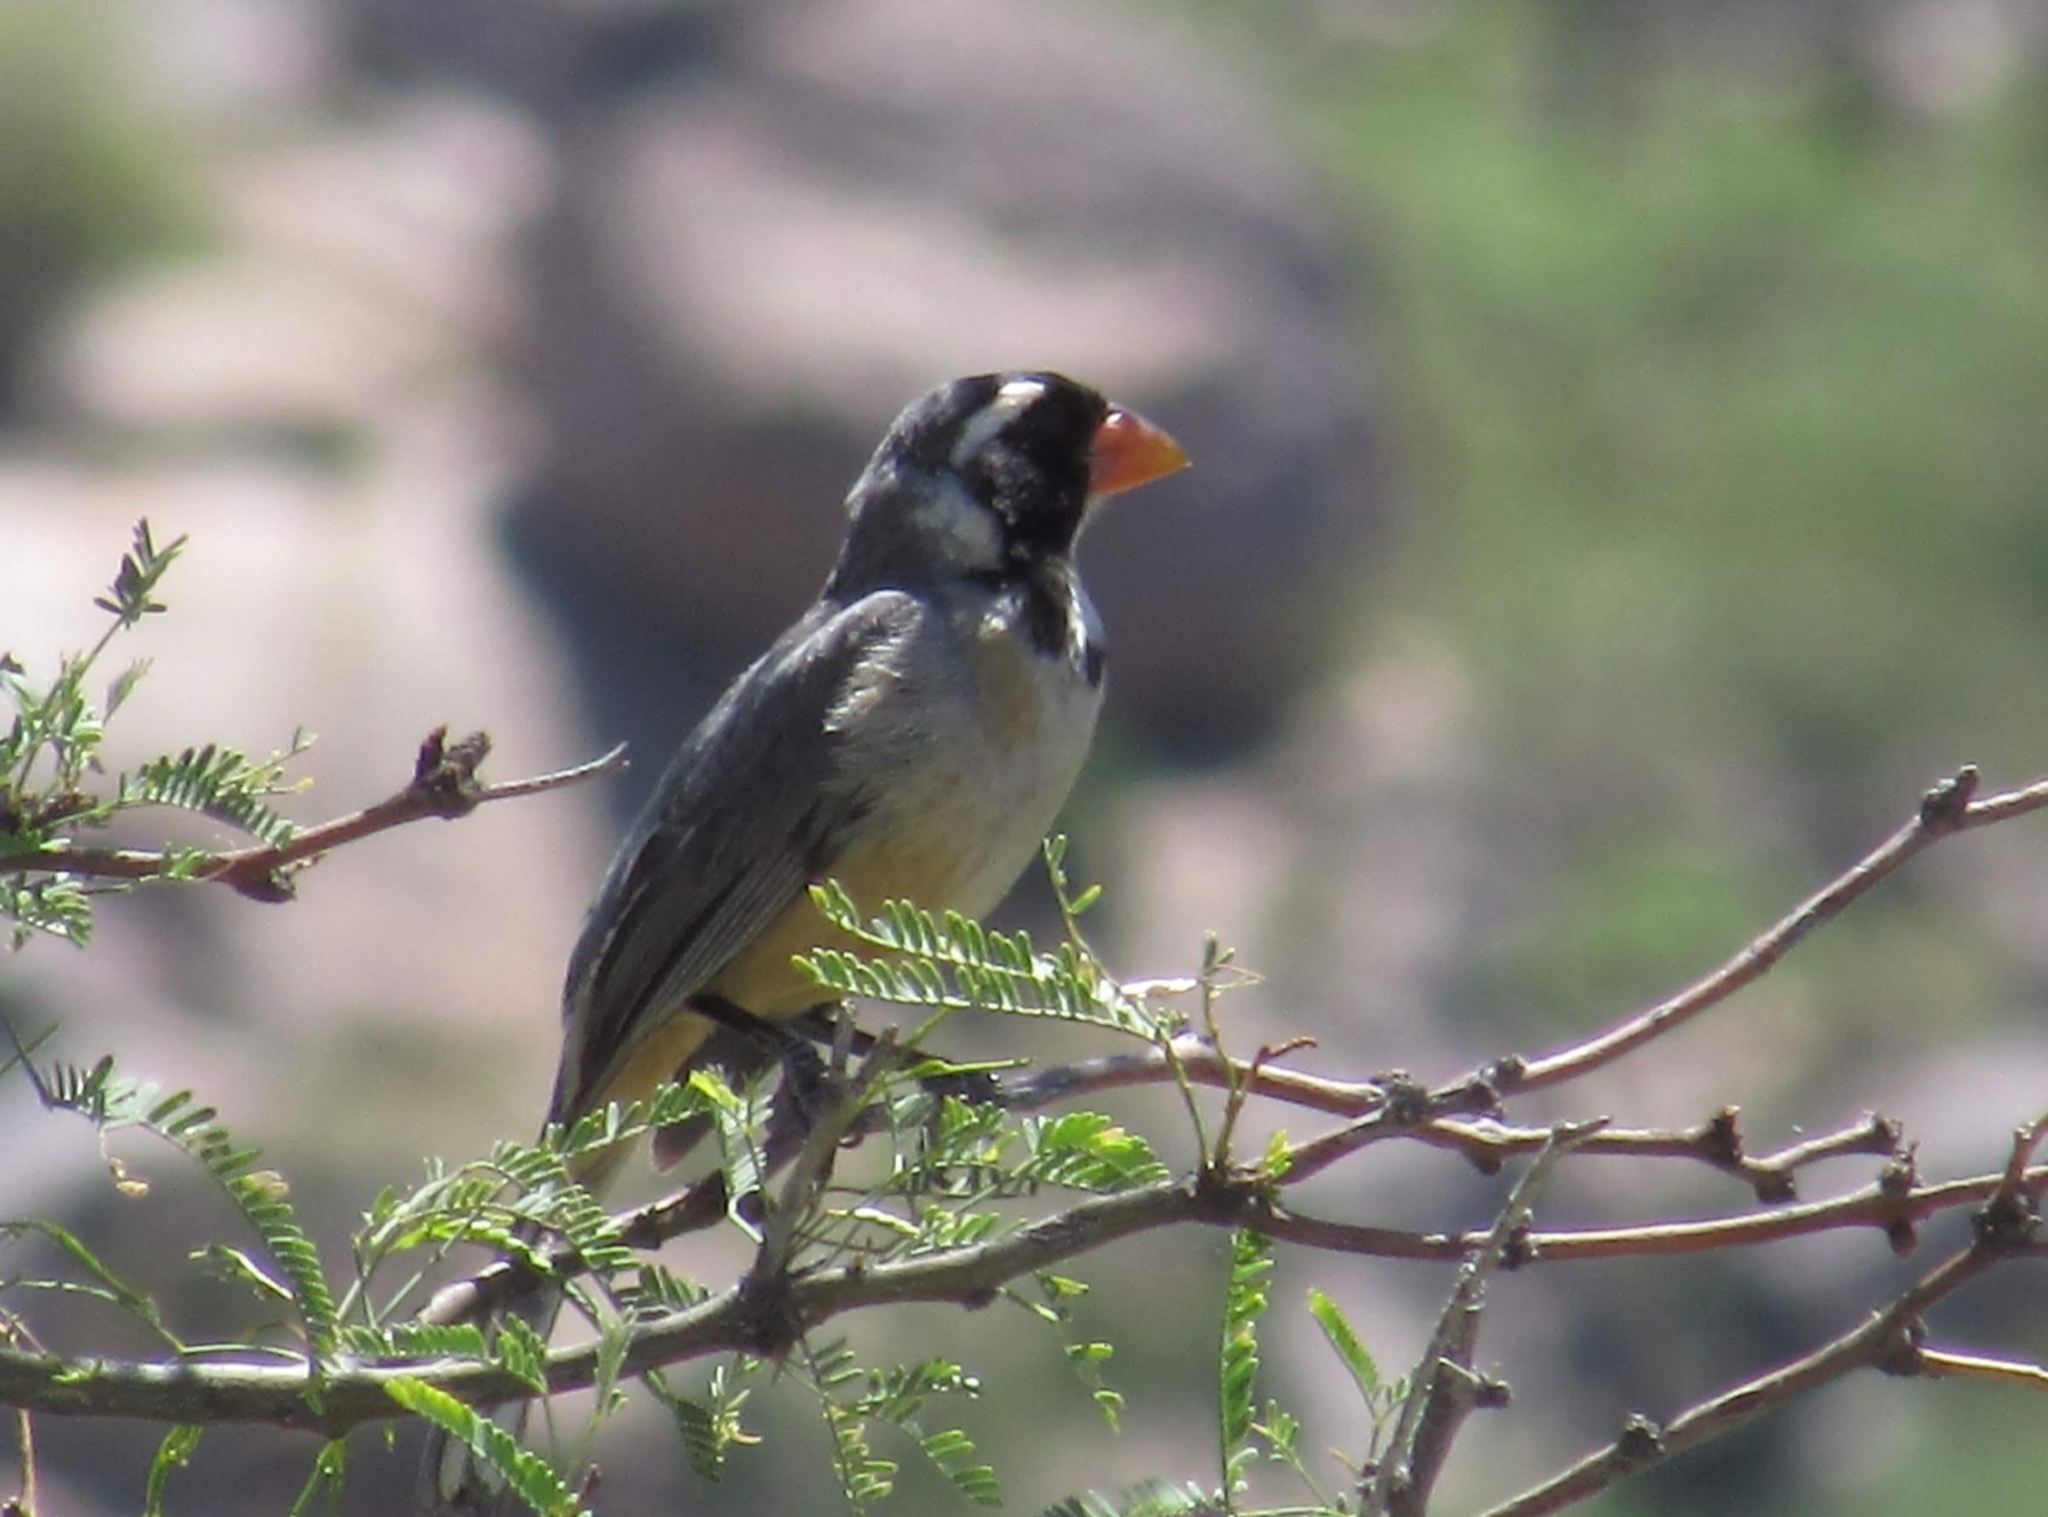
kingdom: Animalia
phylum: Chordata
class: Aves
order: Passeriformes
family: Thraupidae
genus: Saltator
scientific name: Saltator aurantiirostris
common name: Golden-billed saltator
